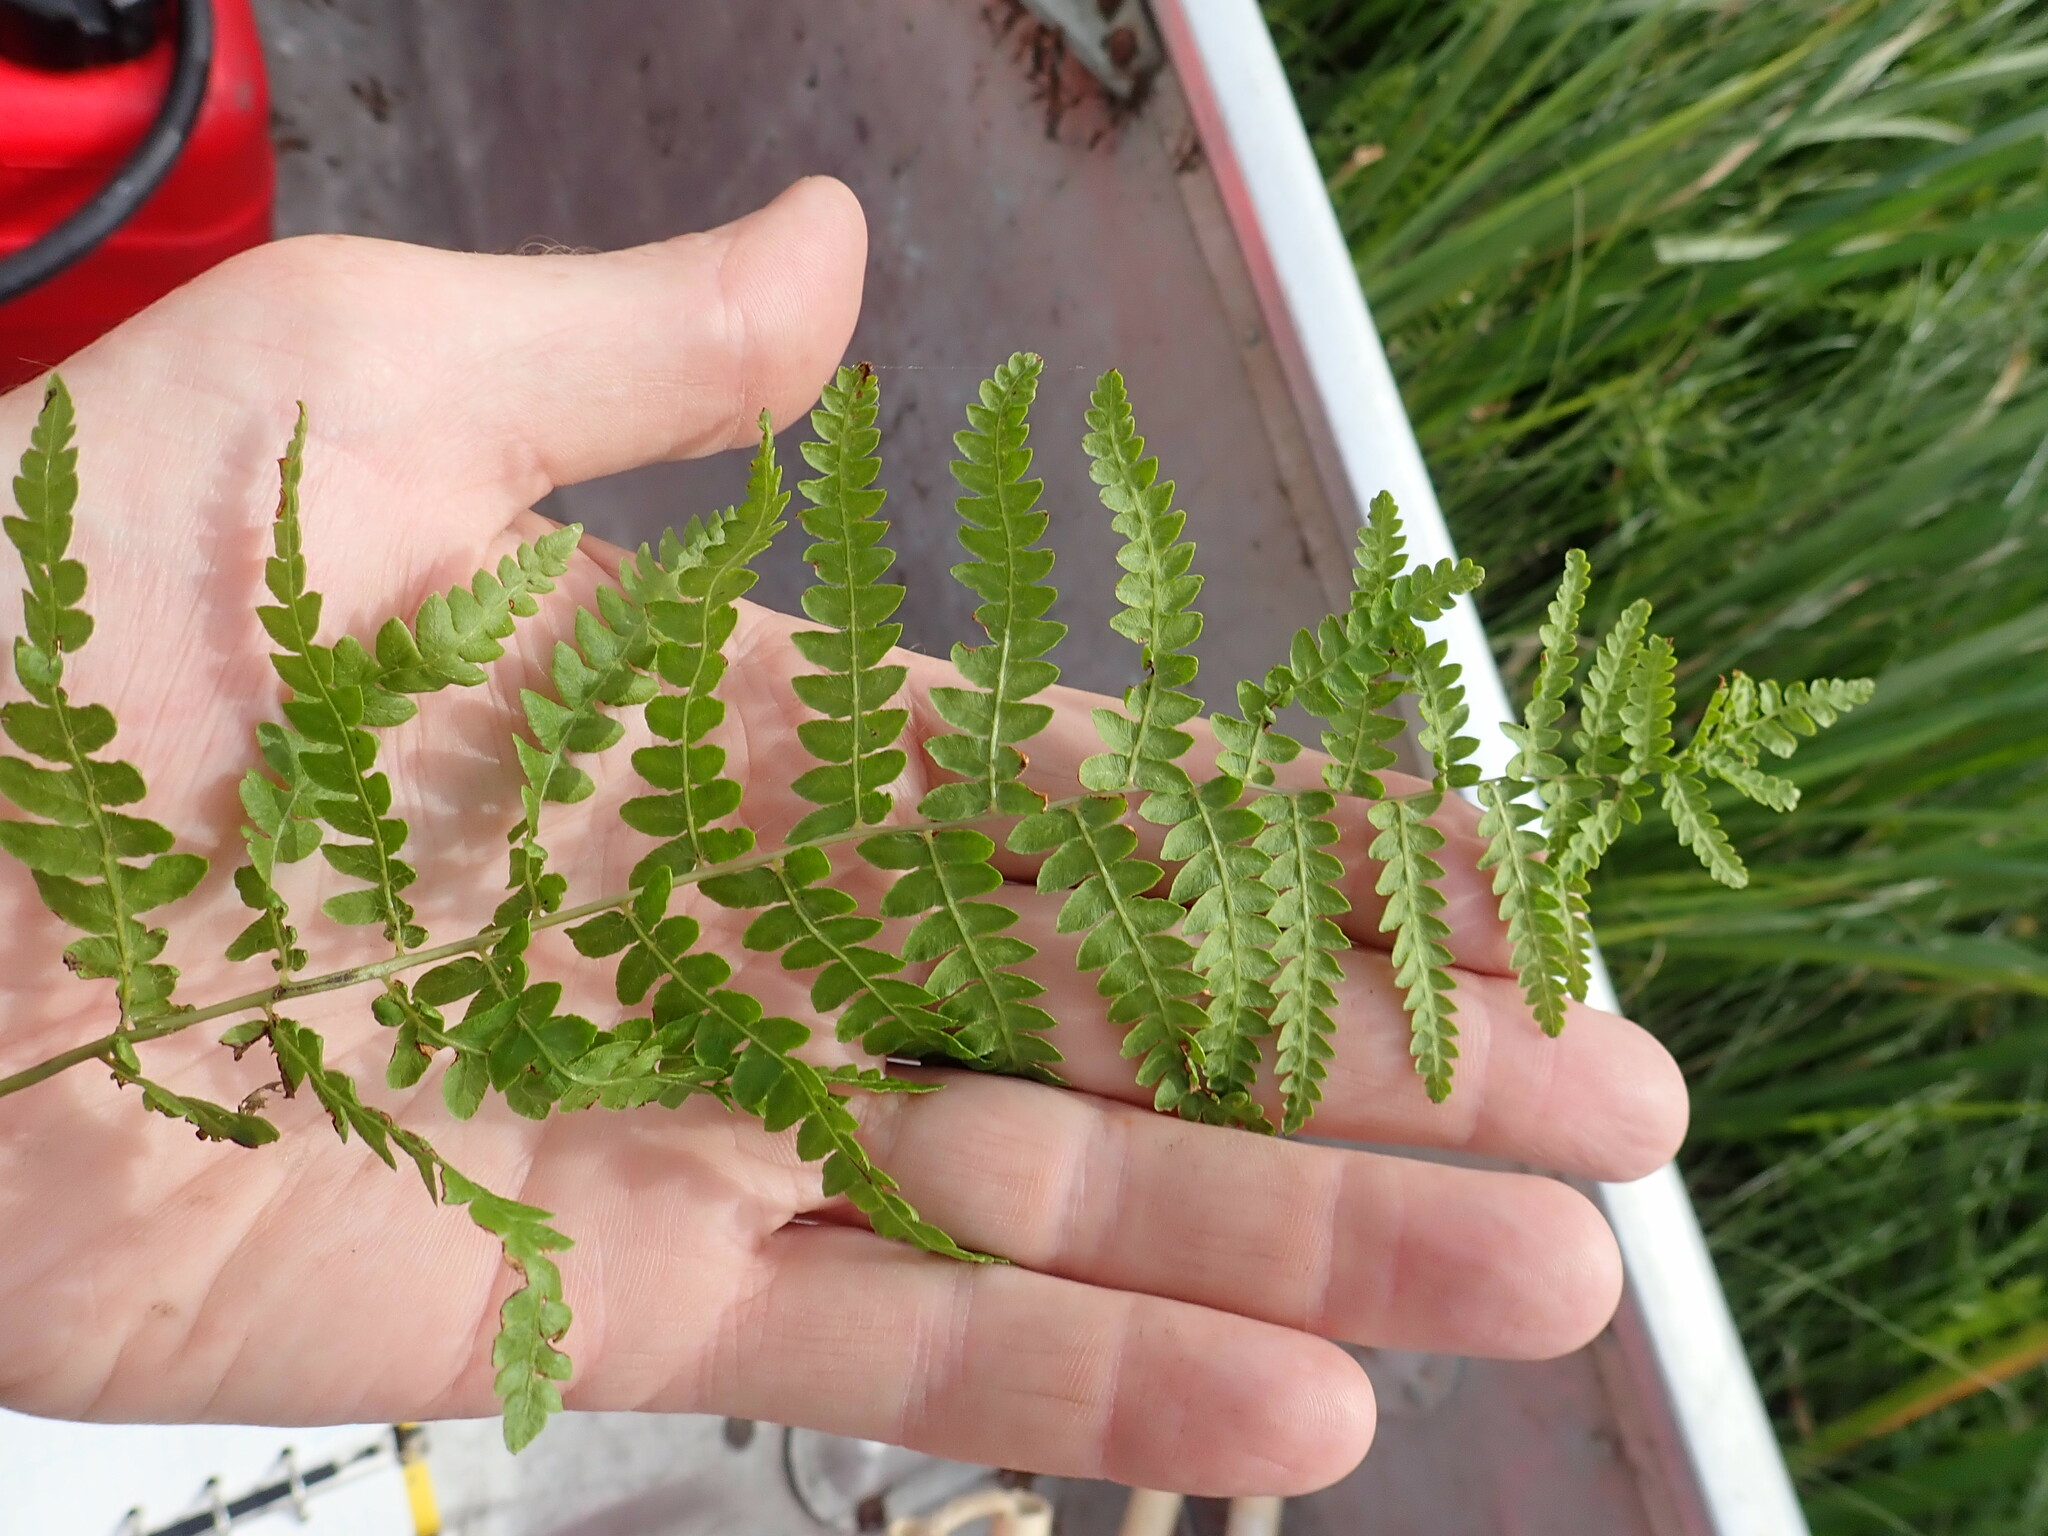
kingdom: Plantae
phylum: Tracheophyta
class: Polypodiopsida
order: Polypodiales
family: Thelypteridaceae
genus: Thelypteris
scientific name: Thelypteris palustris
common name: Marsh fern
